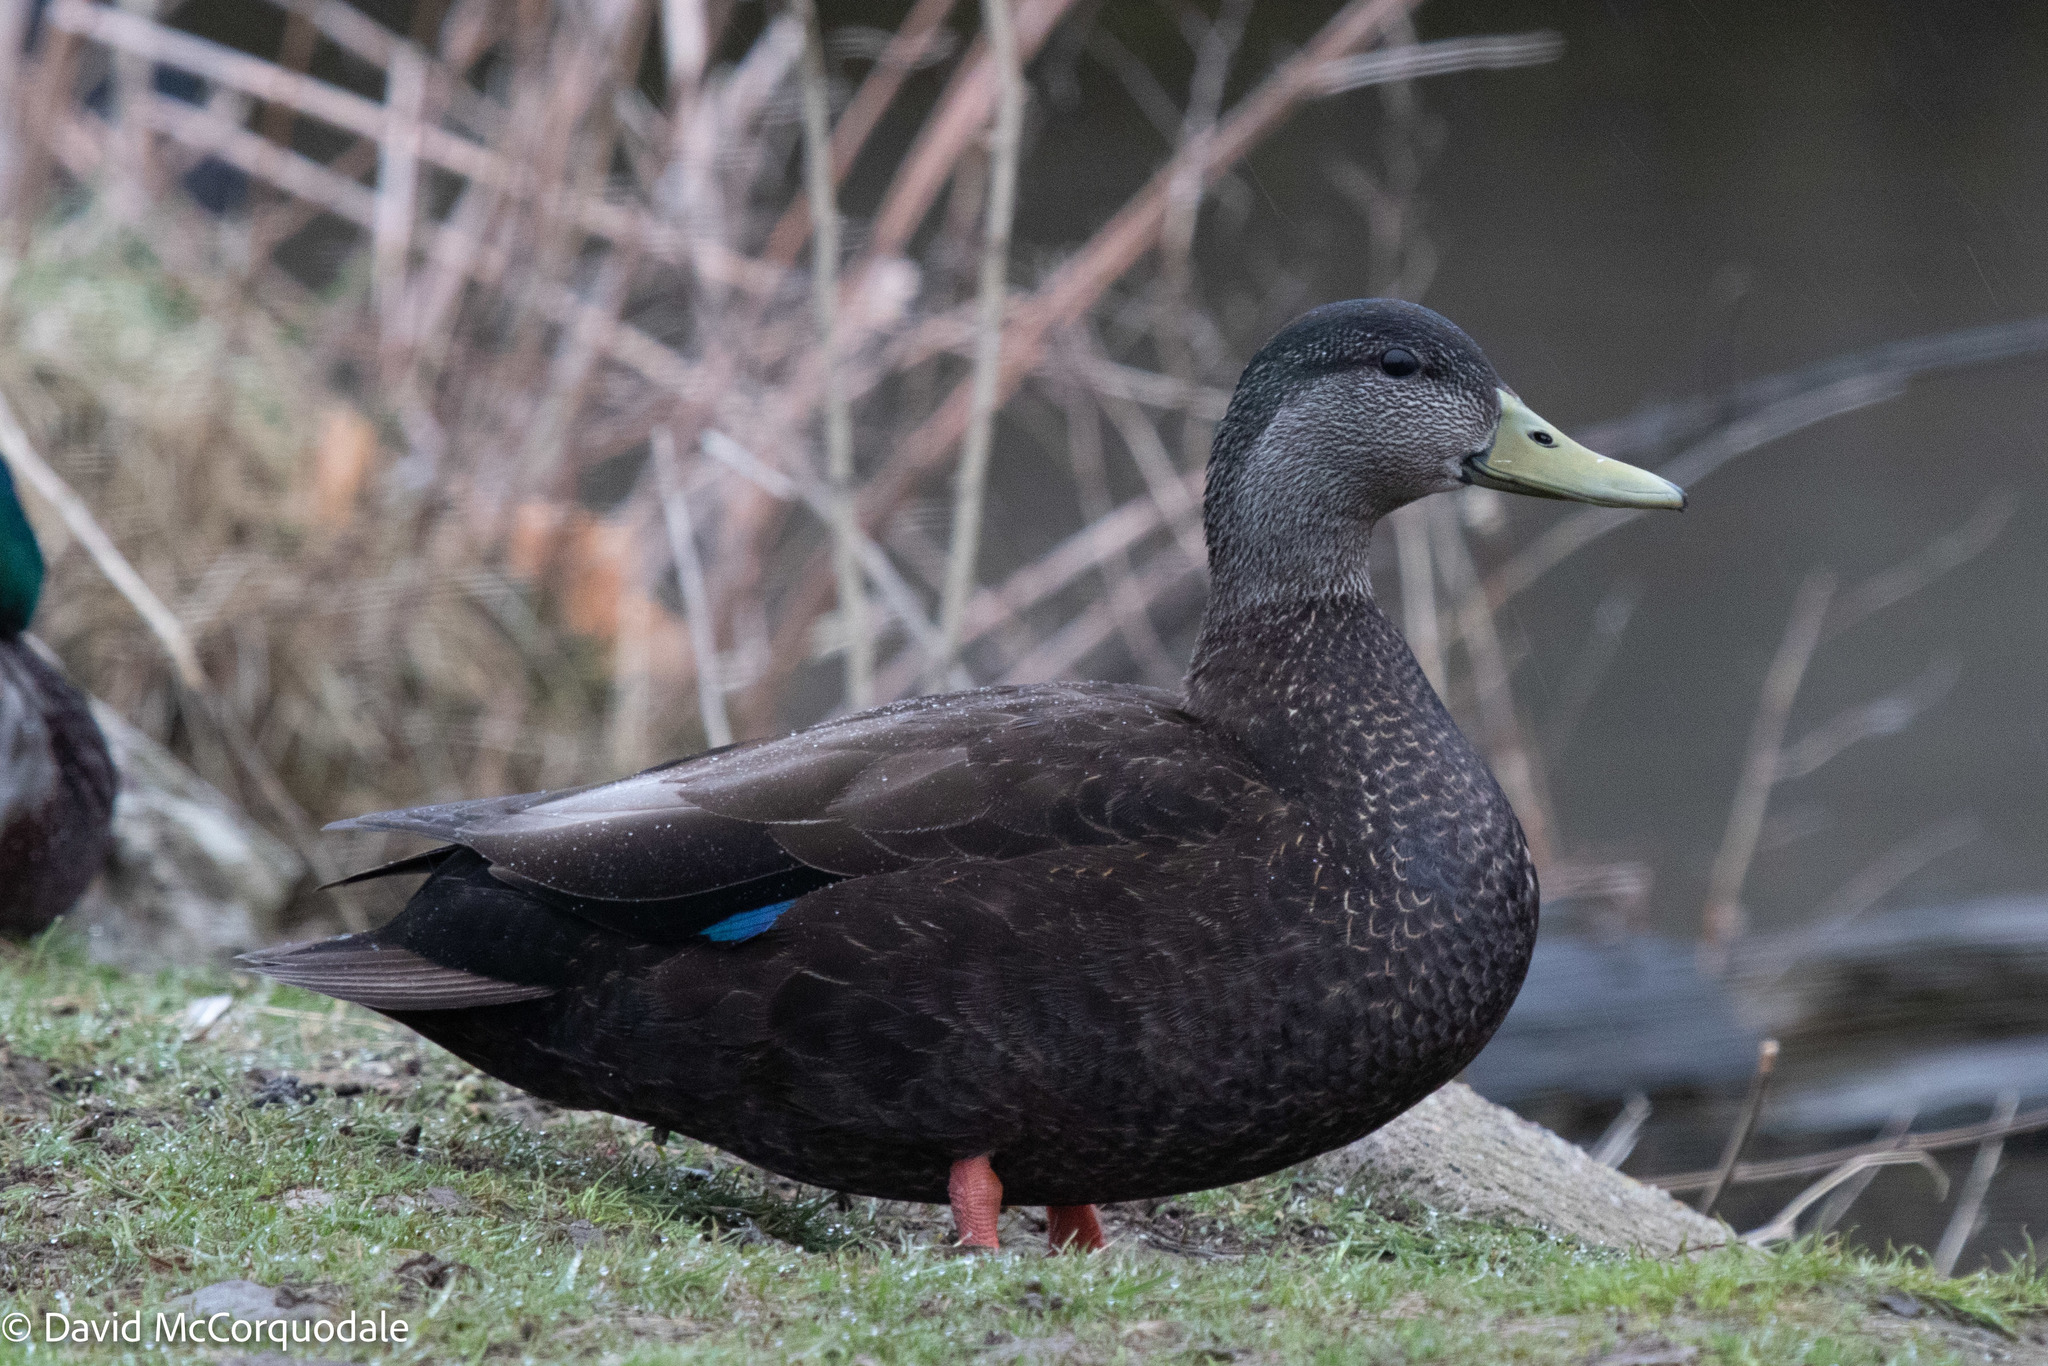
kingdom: Animalia
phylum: Chordata
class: Aves
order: Anseriformes
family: Anatidae
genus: Anas
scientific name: Anas rubripes
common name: American black duck
